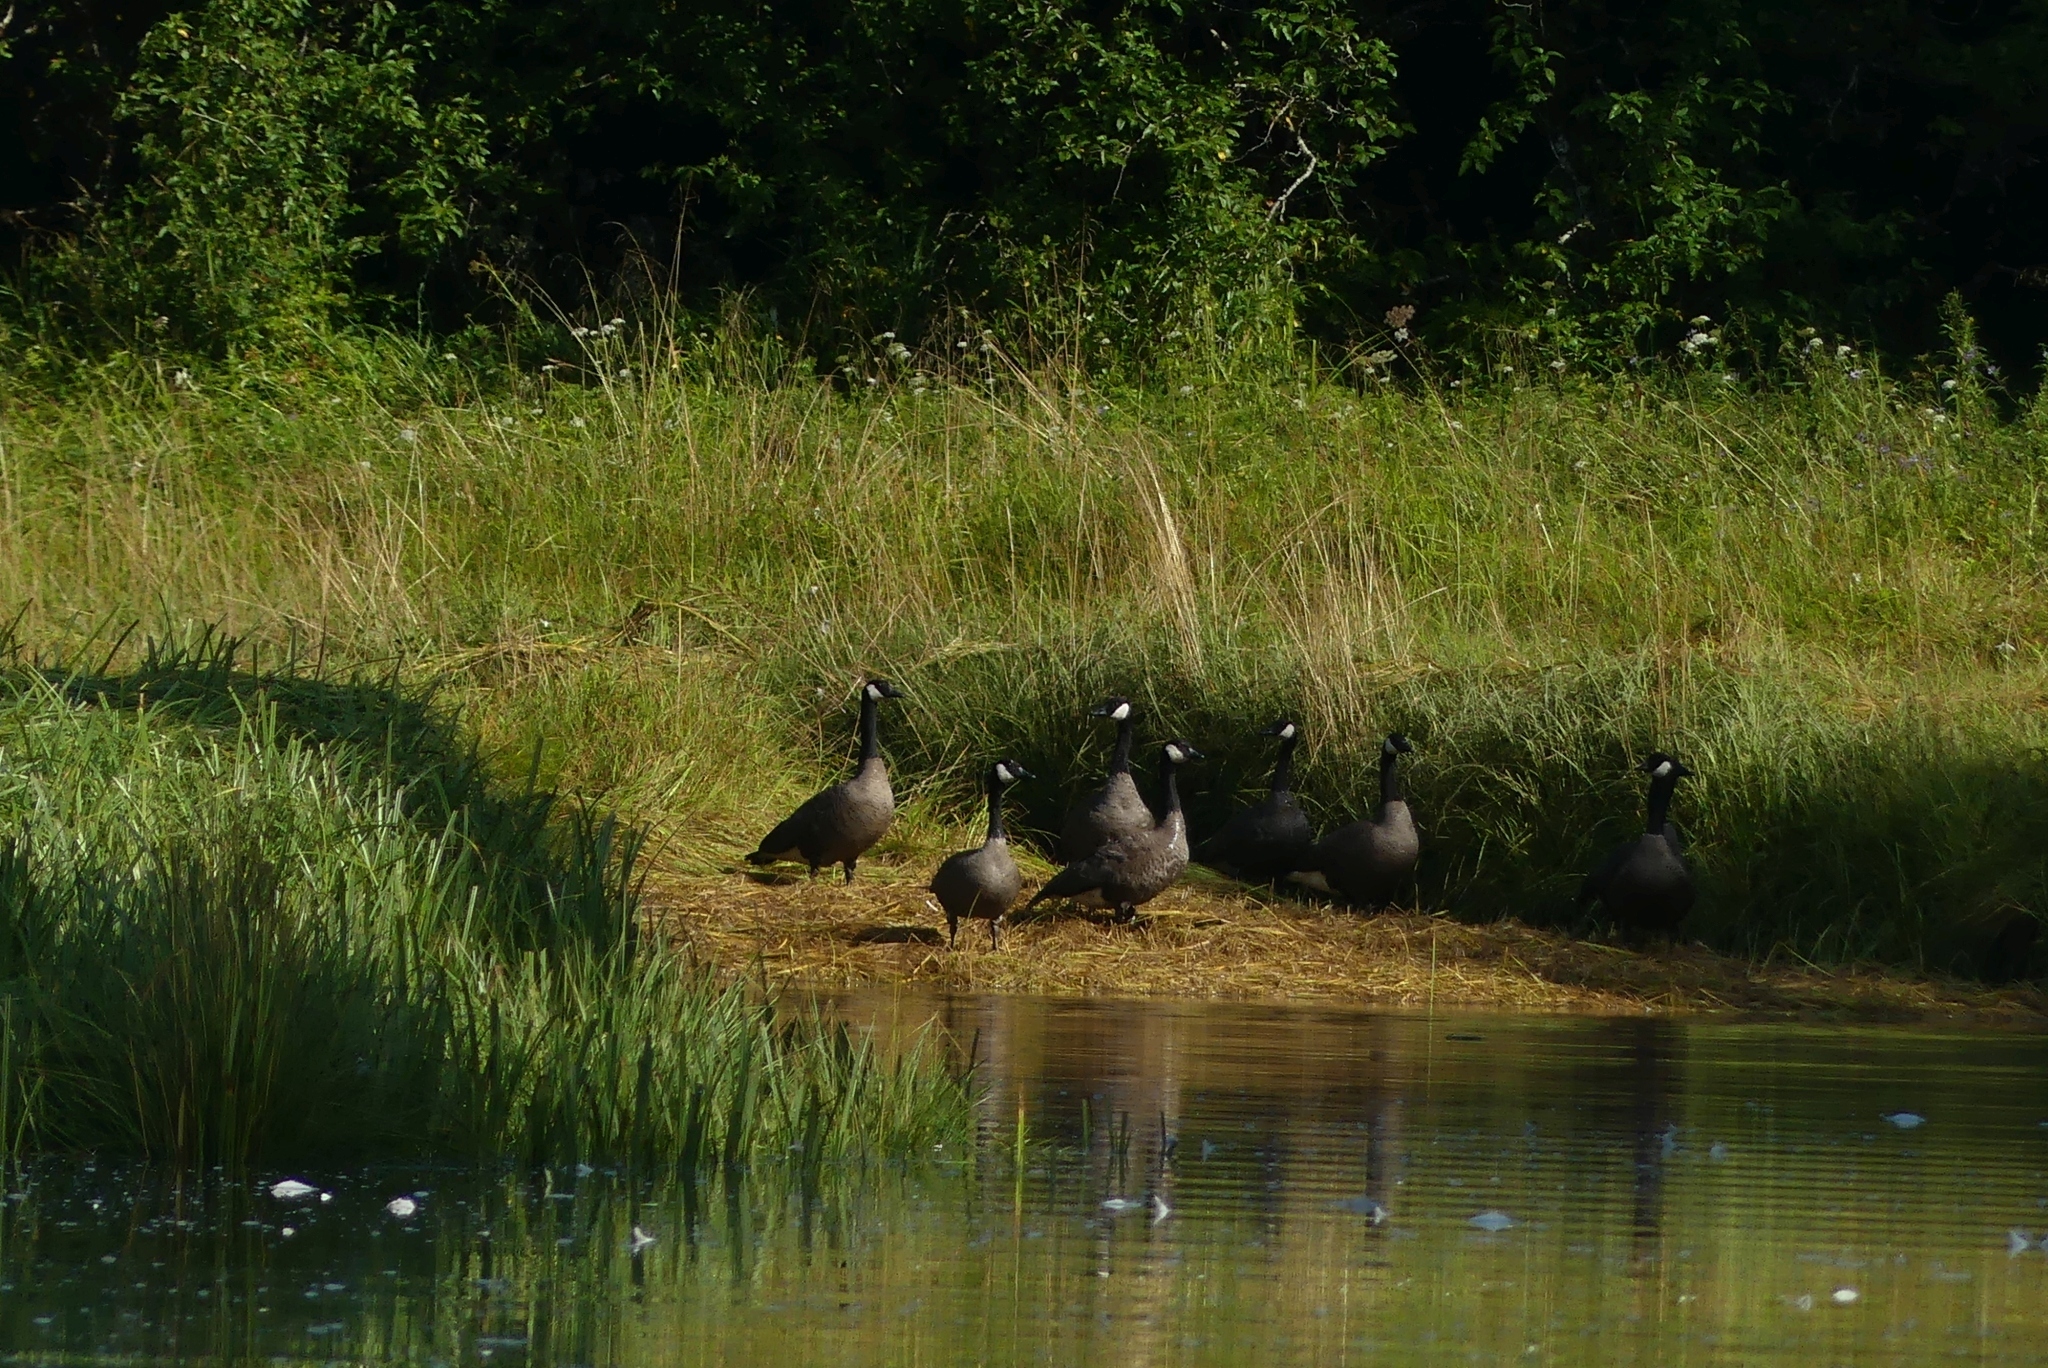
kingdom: Animalia
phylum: Chordata
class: Aves
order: Anseriformes
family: Anatidae
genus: Branta
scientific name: Branta canadensis
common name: Canada goose
